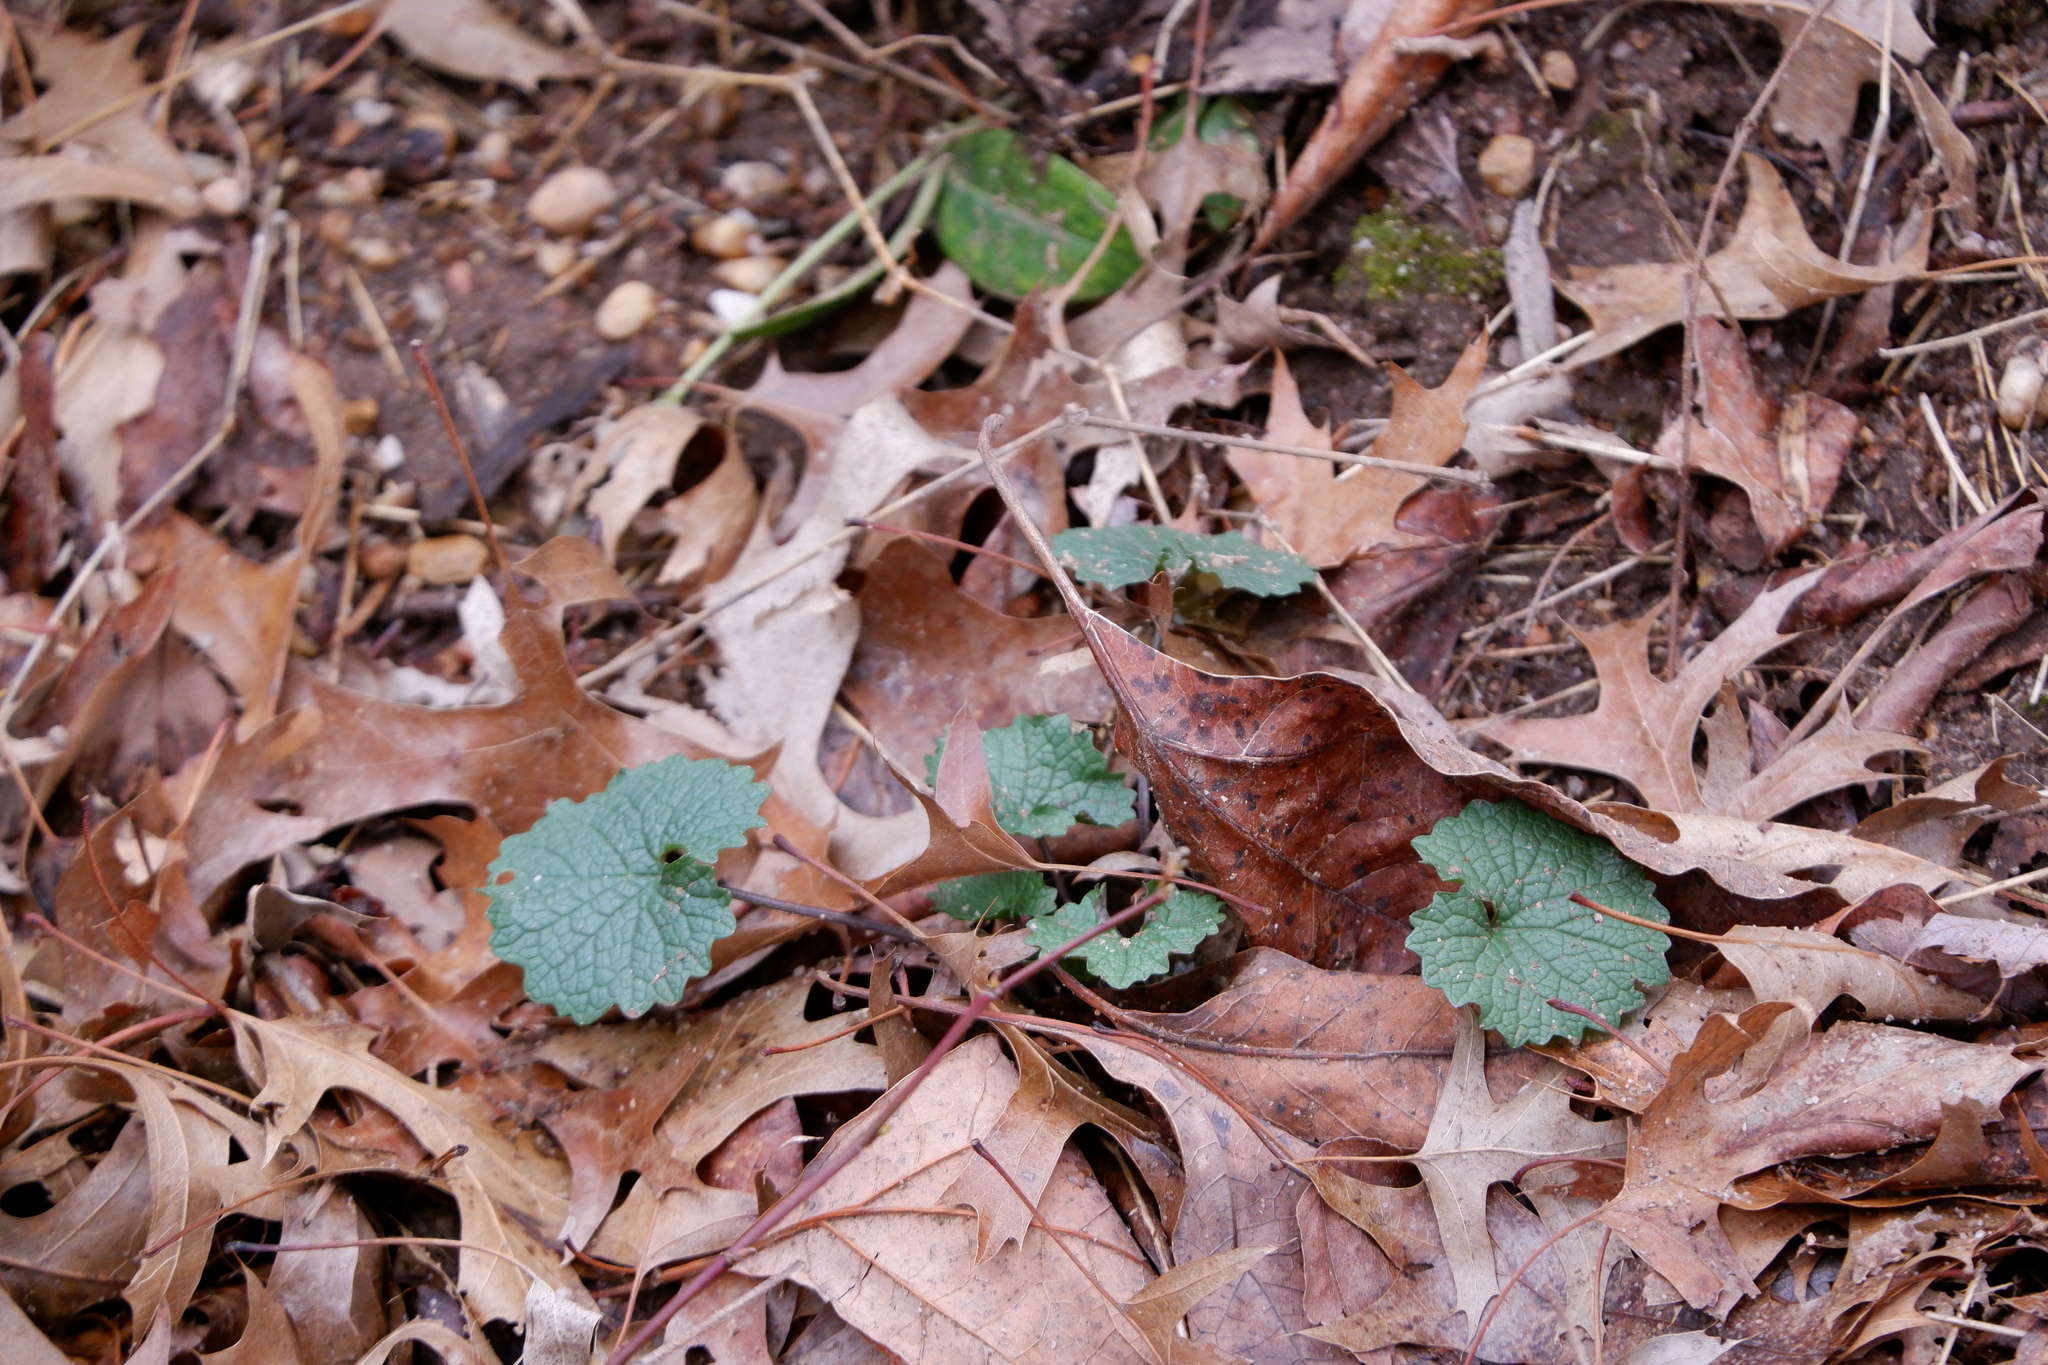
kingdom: Plantae
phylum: Tracheophyta
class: Magnoliopsida
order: Brassicales
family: Brassicaceae
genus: Alliaria
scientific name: Alliaria petiolata
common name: Garlic mustard
